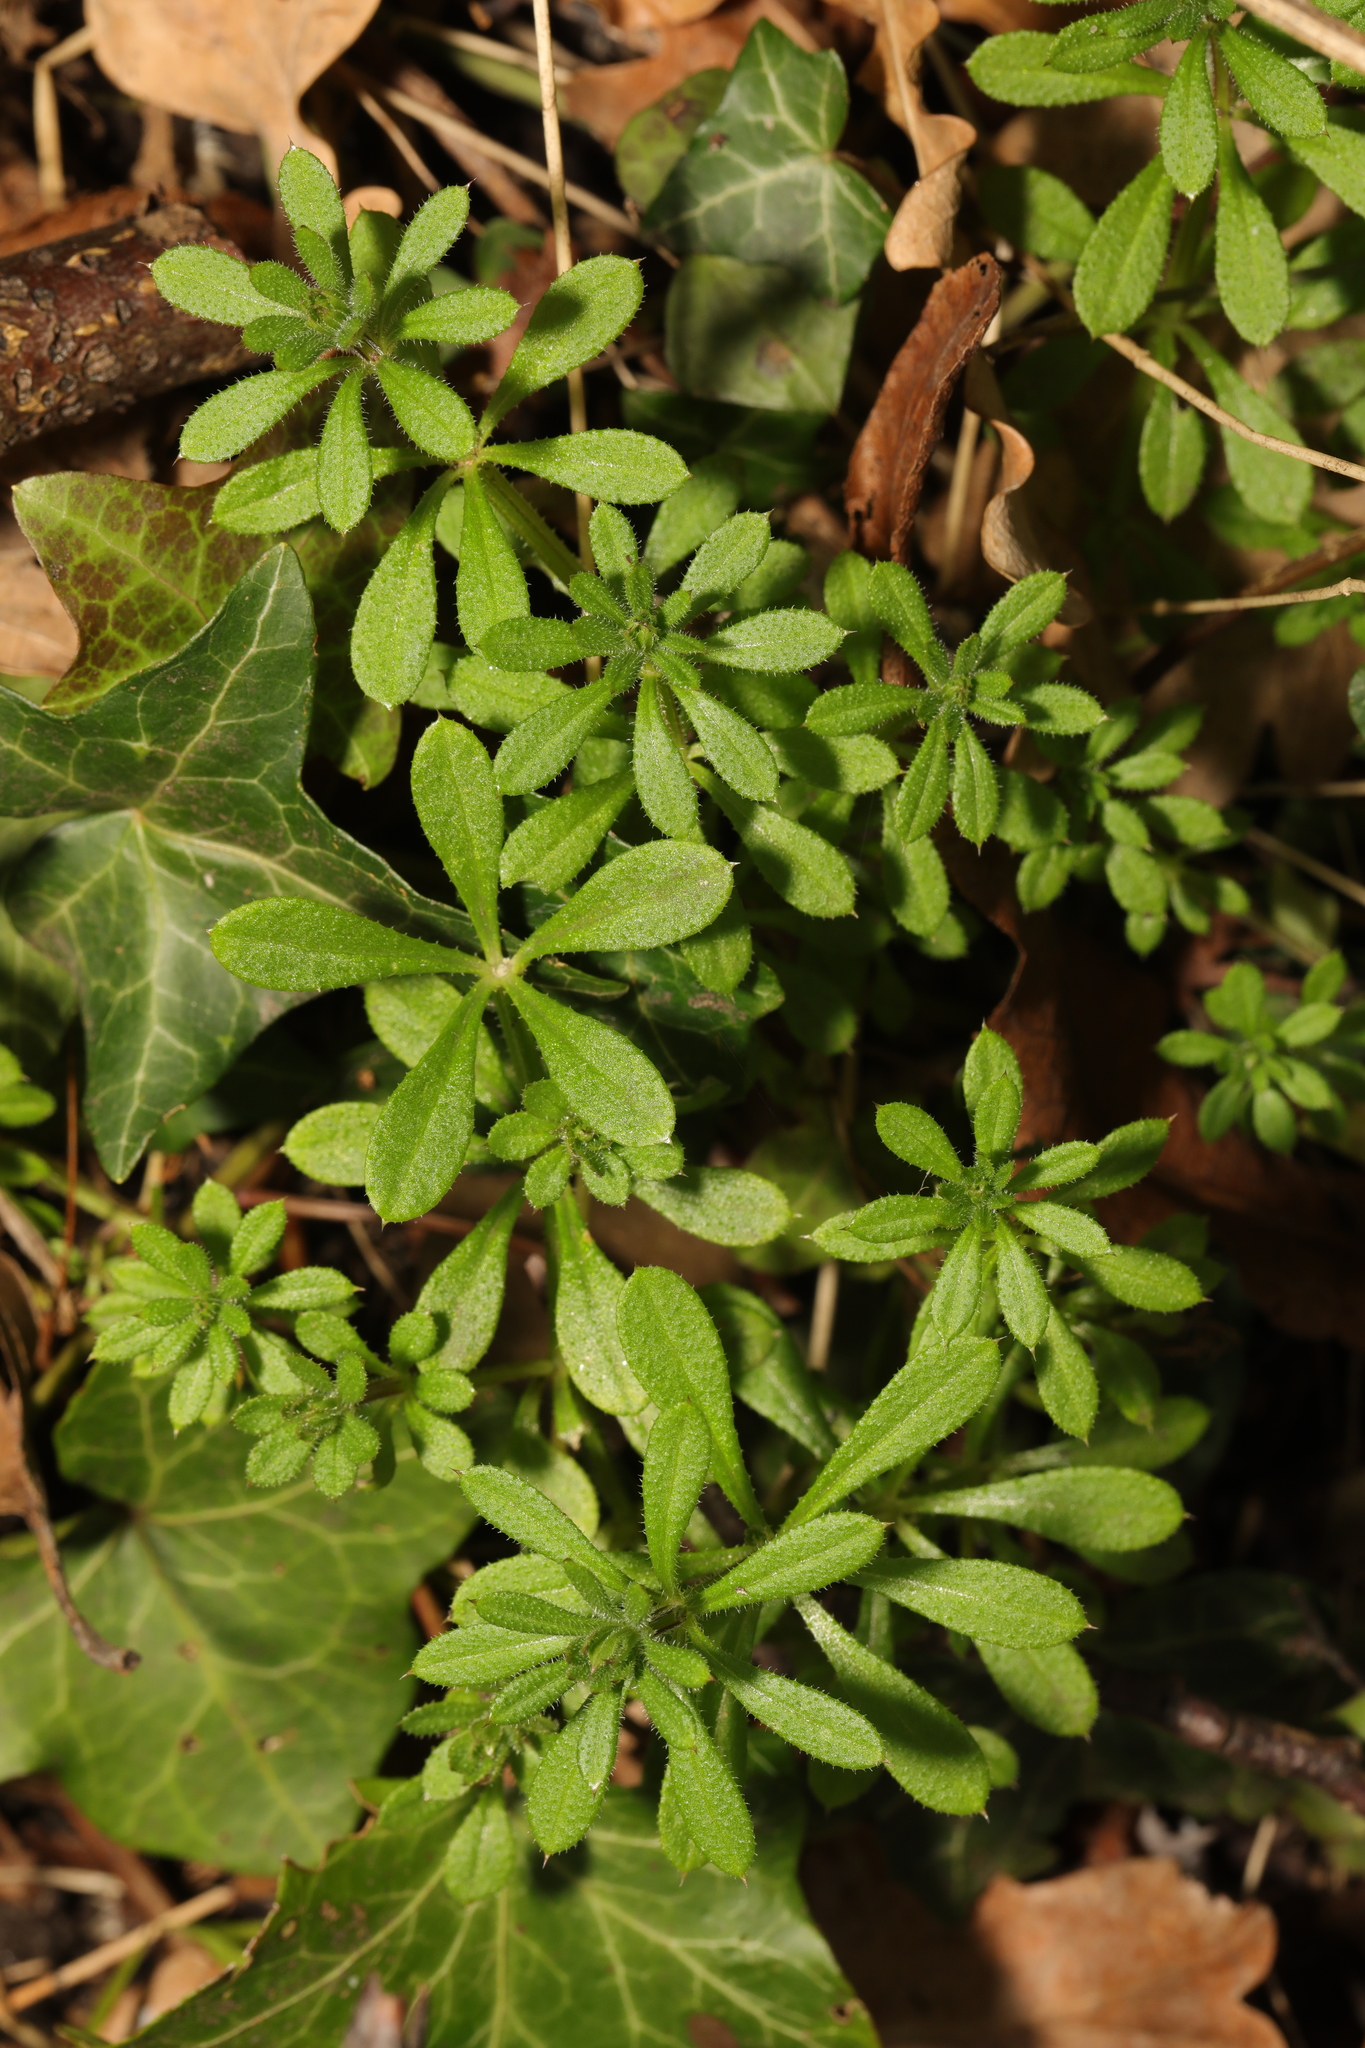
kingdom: Plantae
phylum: Tracheophyta
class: Magnoliopsida
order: Gentianales
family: Rubiaceae
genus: Galium
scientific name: Galium aparine
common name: Cleavers
